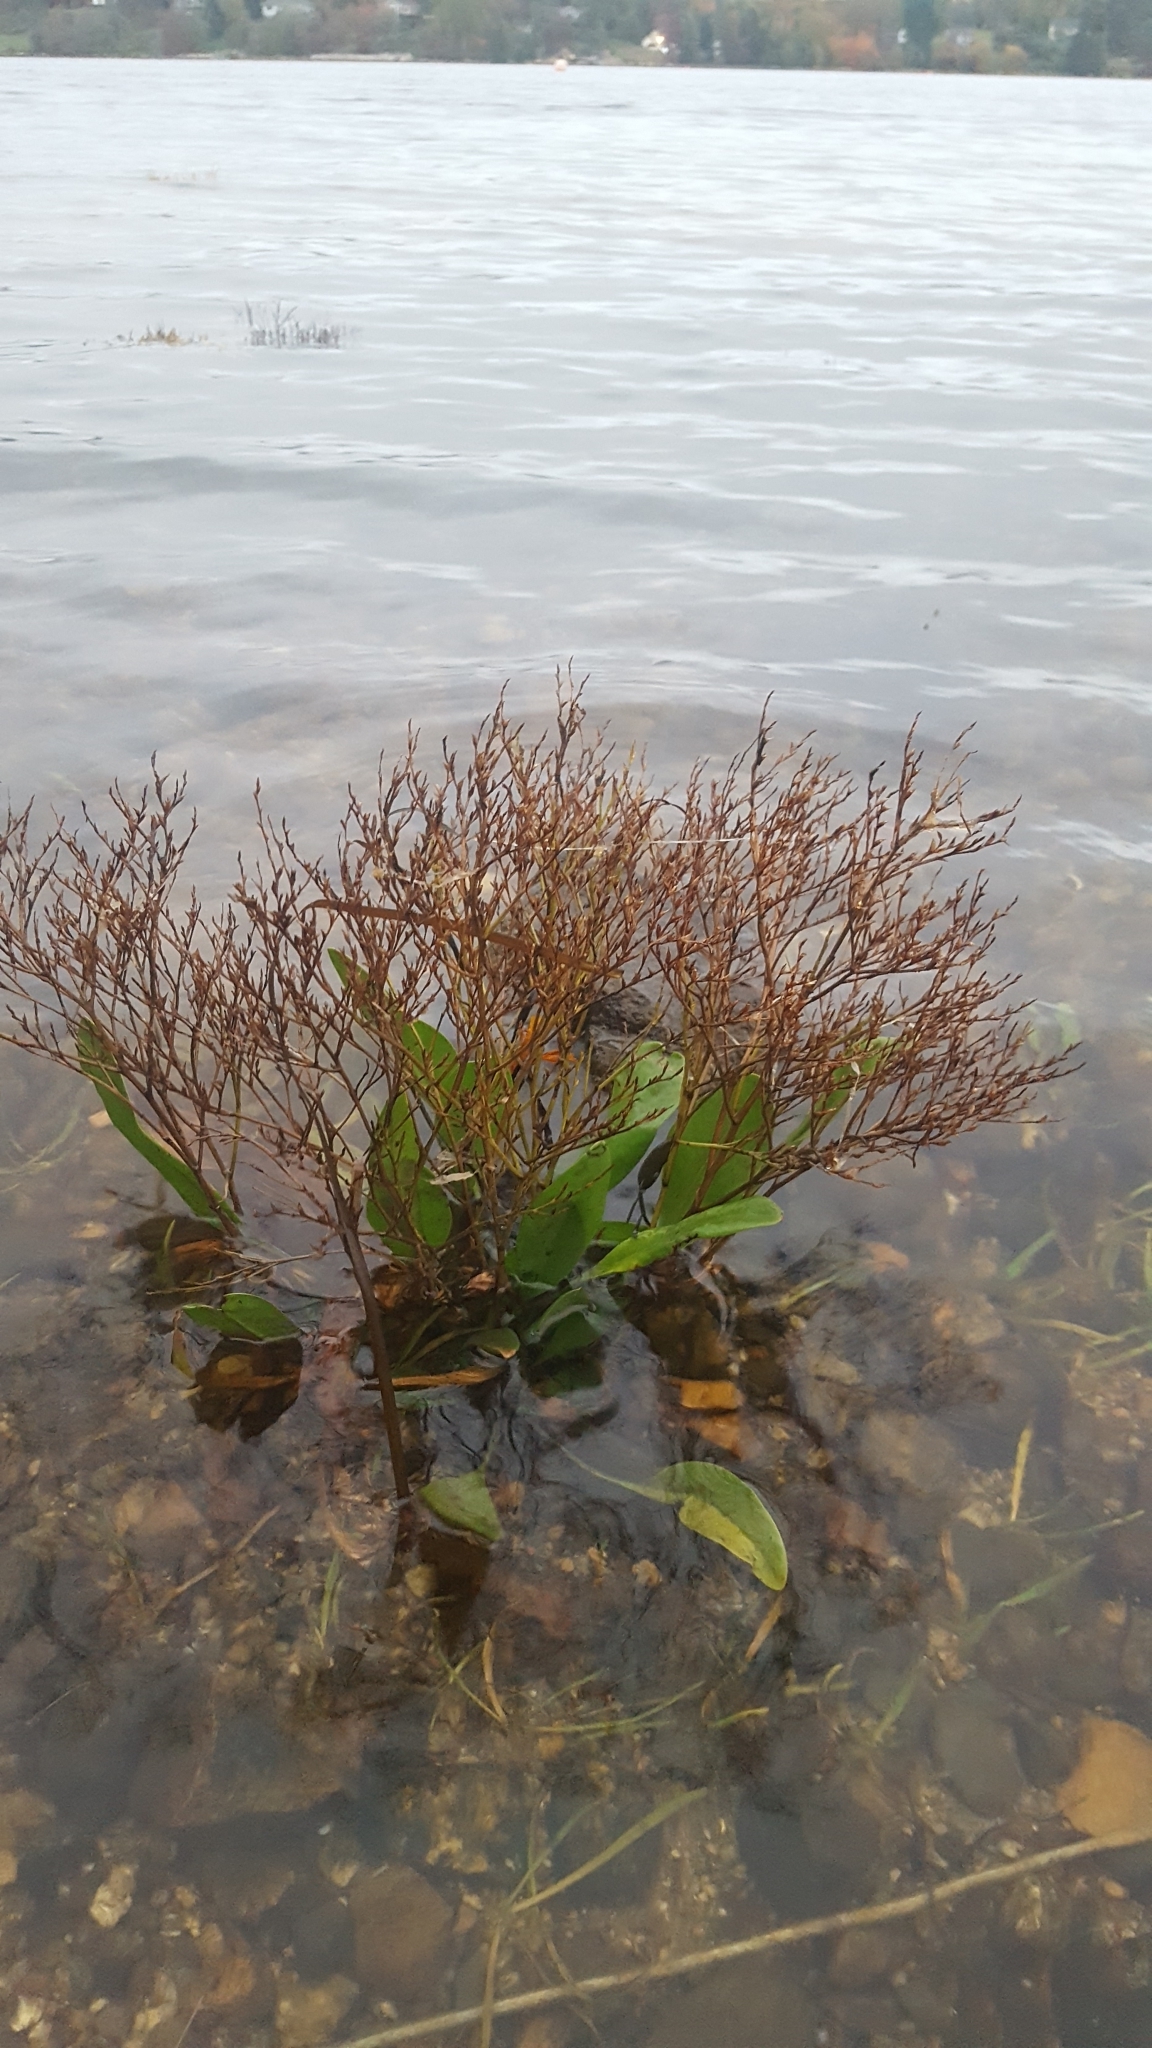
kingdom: Plantae
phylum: Tracheophyta
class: Magnoliopsida
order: Caryophyllales
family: Plumbaginaceae
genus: Limonium
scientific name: Limonium carolinianum
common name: Carolina sea lavender
